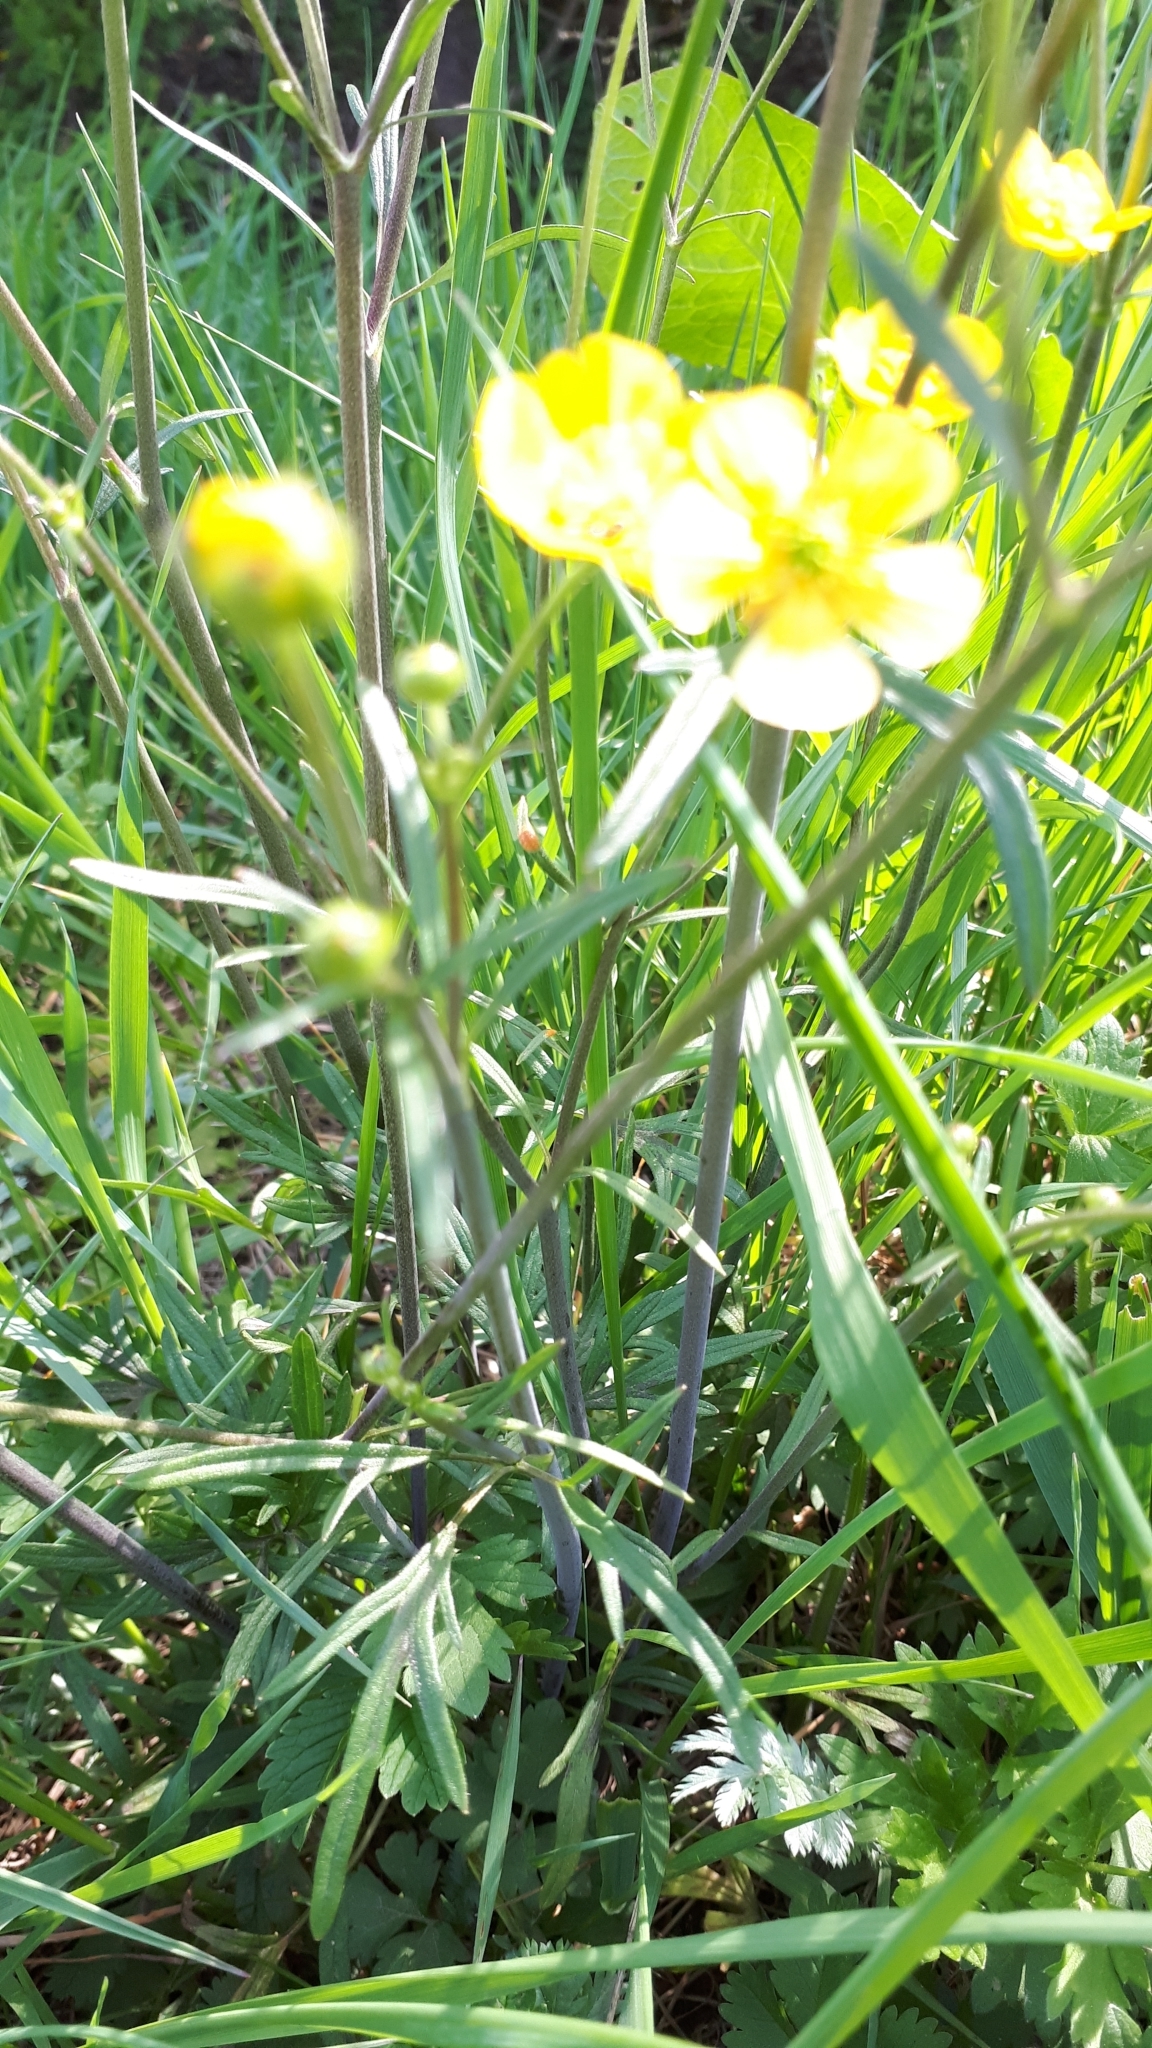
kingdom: Plantae
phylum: Tracheophyta
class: Magnoliopsida
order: Ranunculales
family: Ranunculaceae
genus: Ranunculus
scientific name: Ranunculus acris
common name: Meadow buttercup
